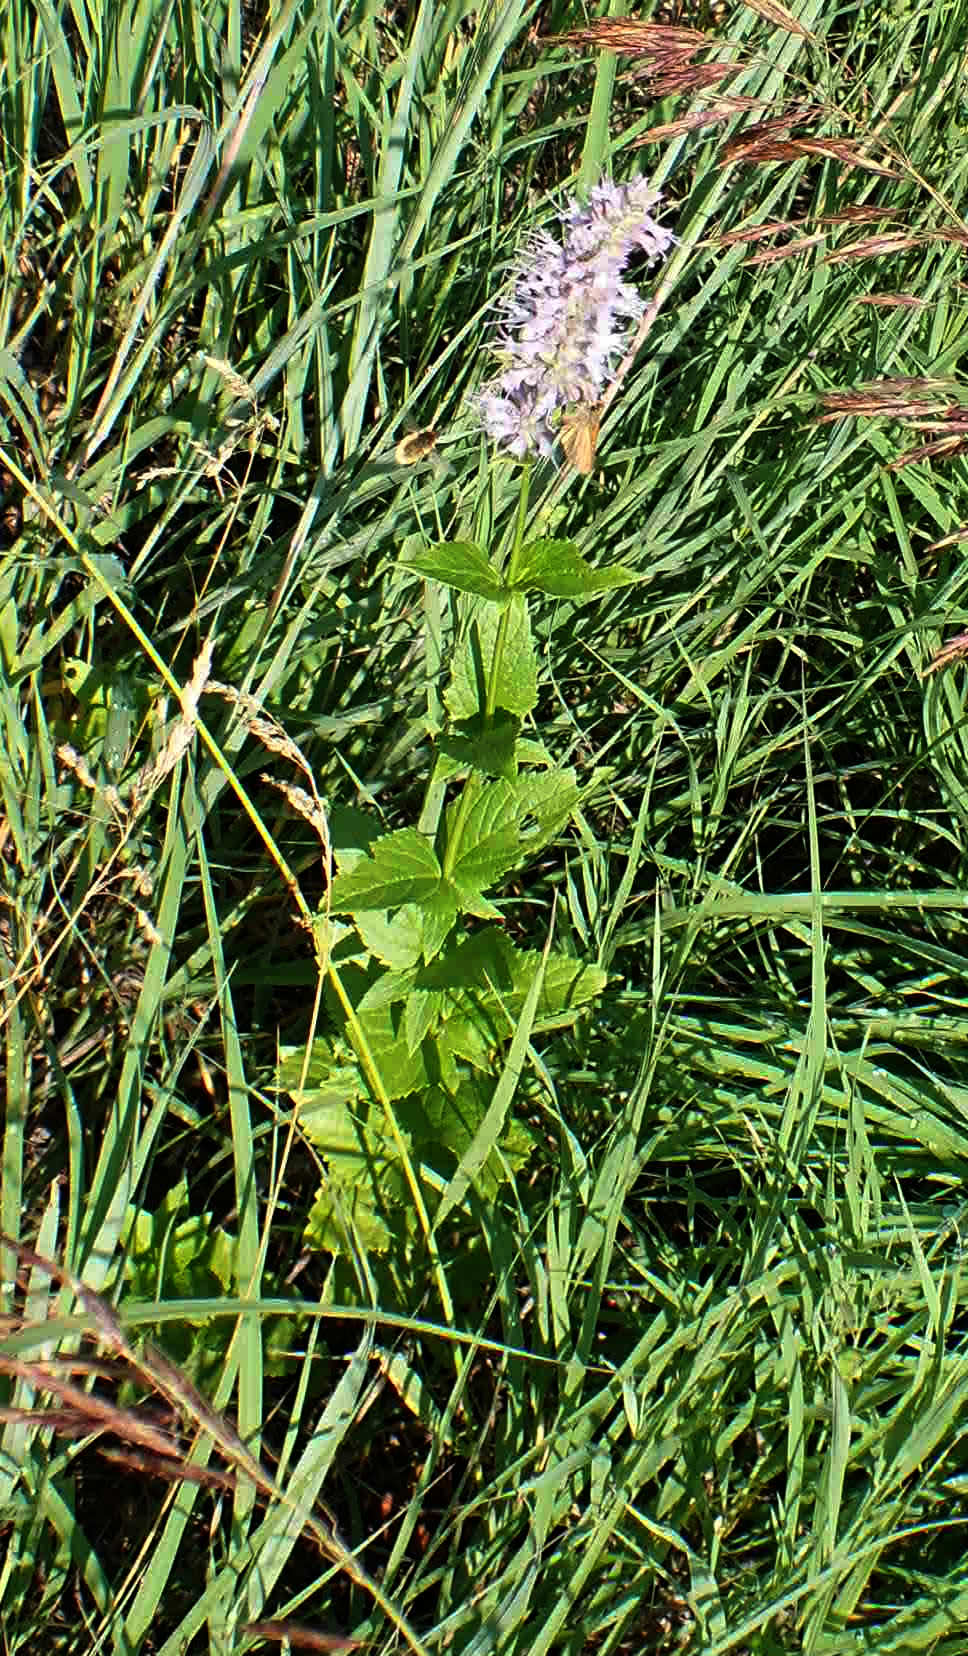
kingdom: Plantae
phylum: Tracheophyta
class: Magnoliopsida
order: Lamiales
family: Lamiaceae
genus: Agastache
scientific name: Agastache foeniculum
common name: Anise hyssop
